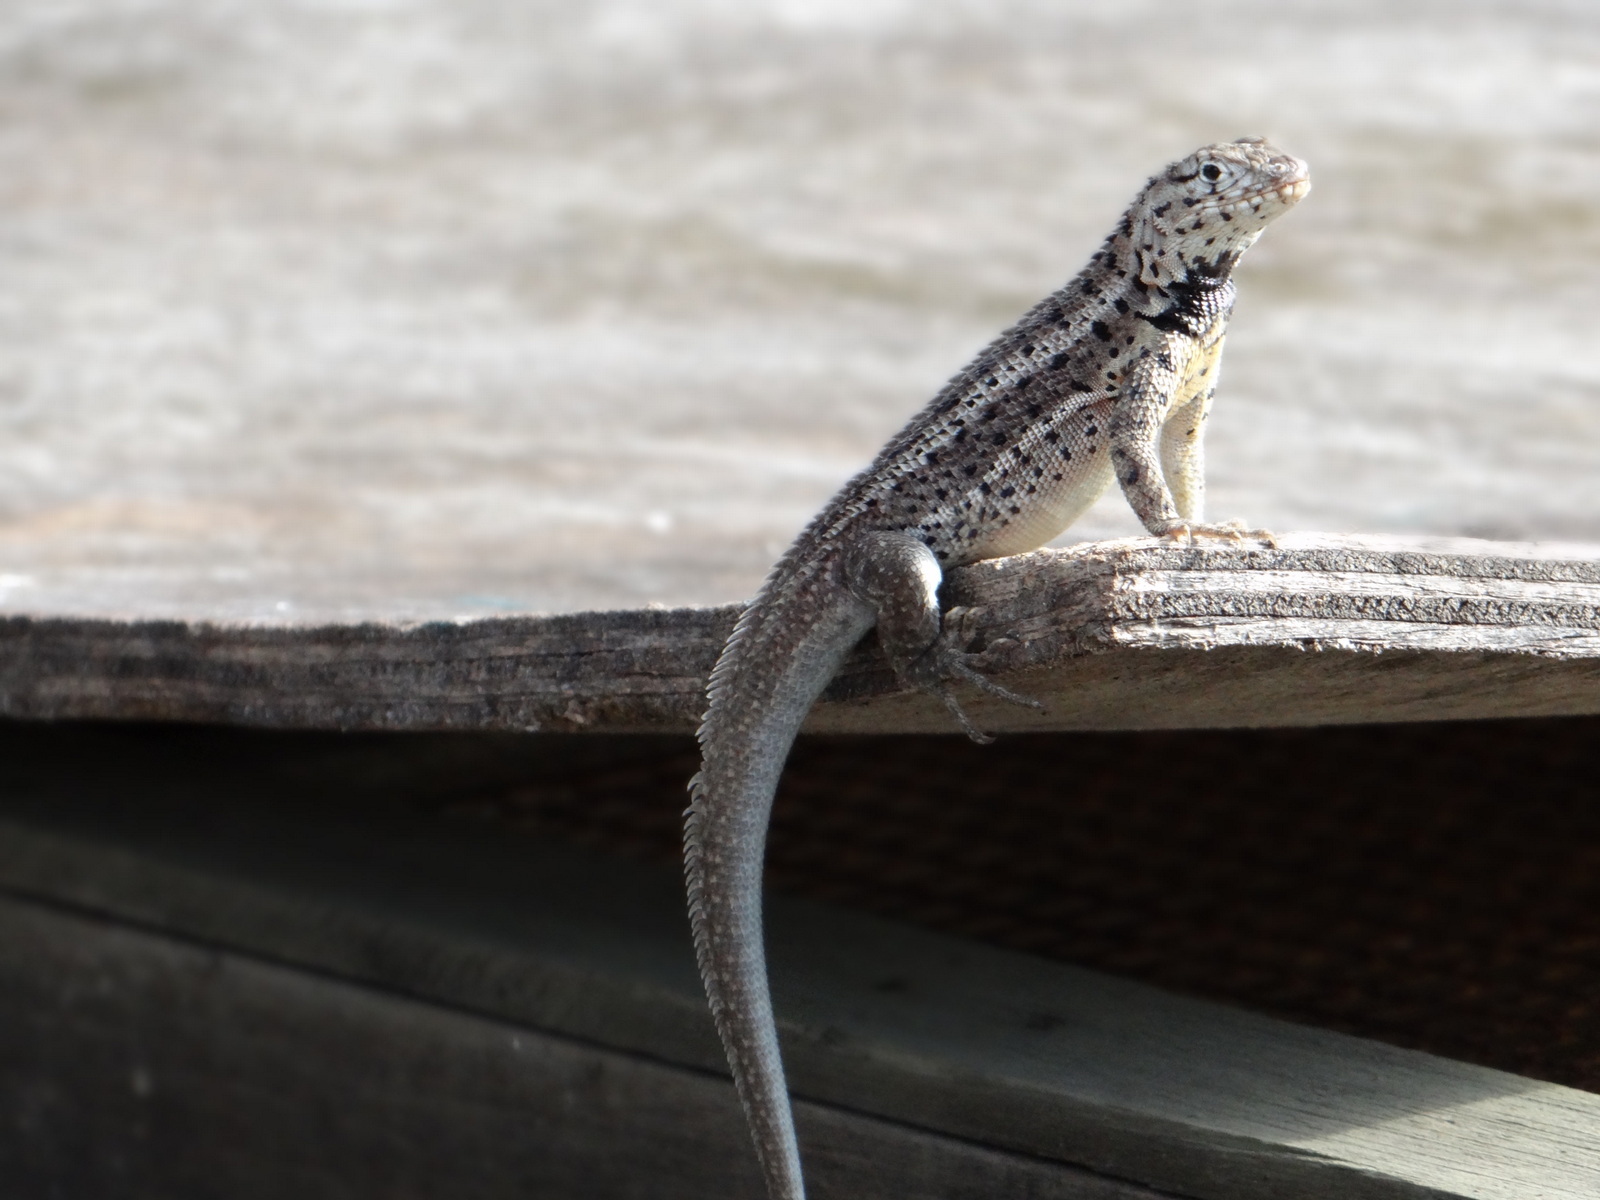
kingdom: Animalia
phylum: Chordata
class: Squamata
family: Tropiduridae
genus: Microlophus
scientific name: Microlophus albemarlensis
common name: Galapagos lava lizard
